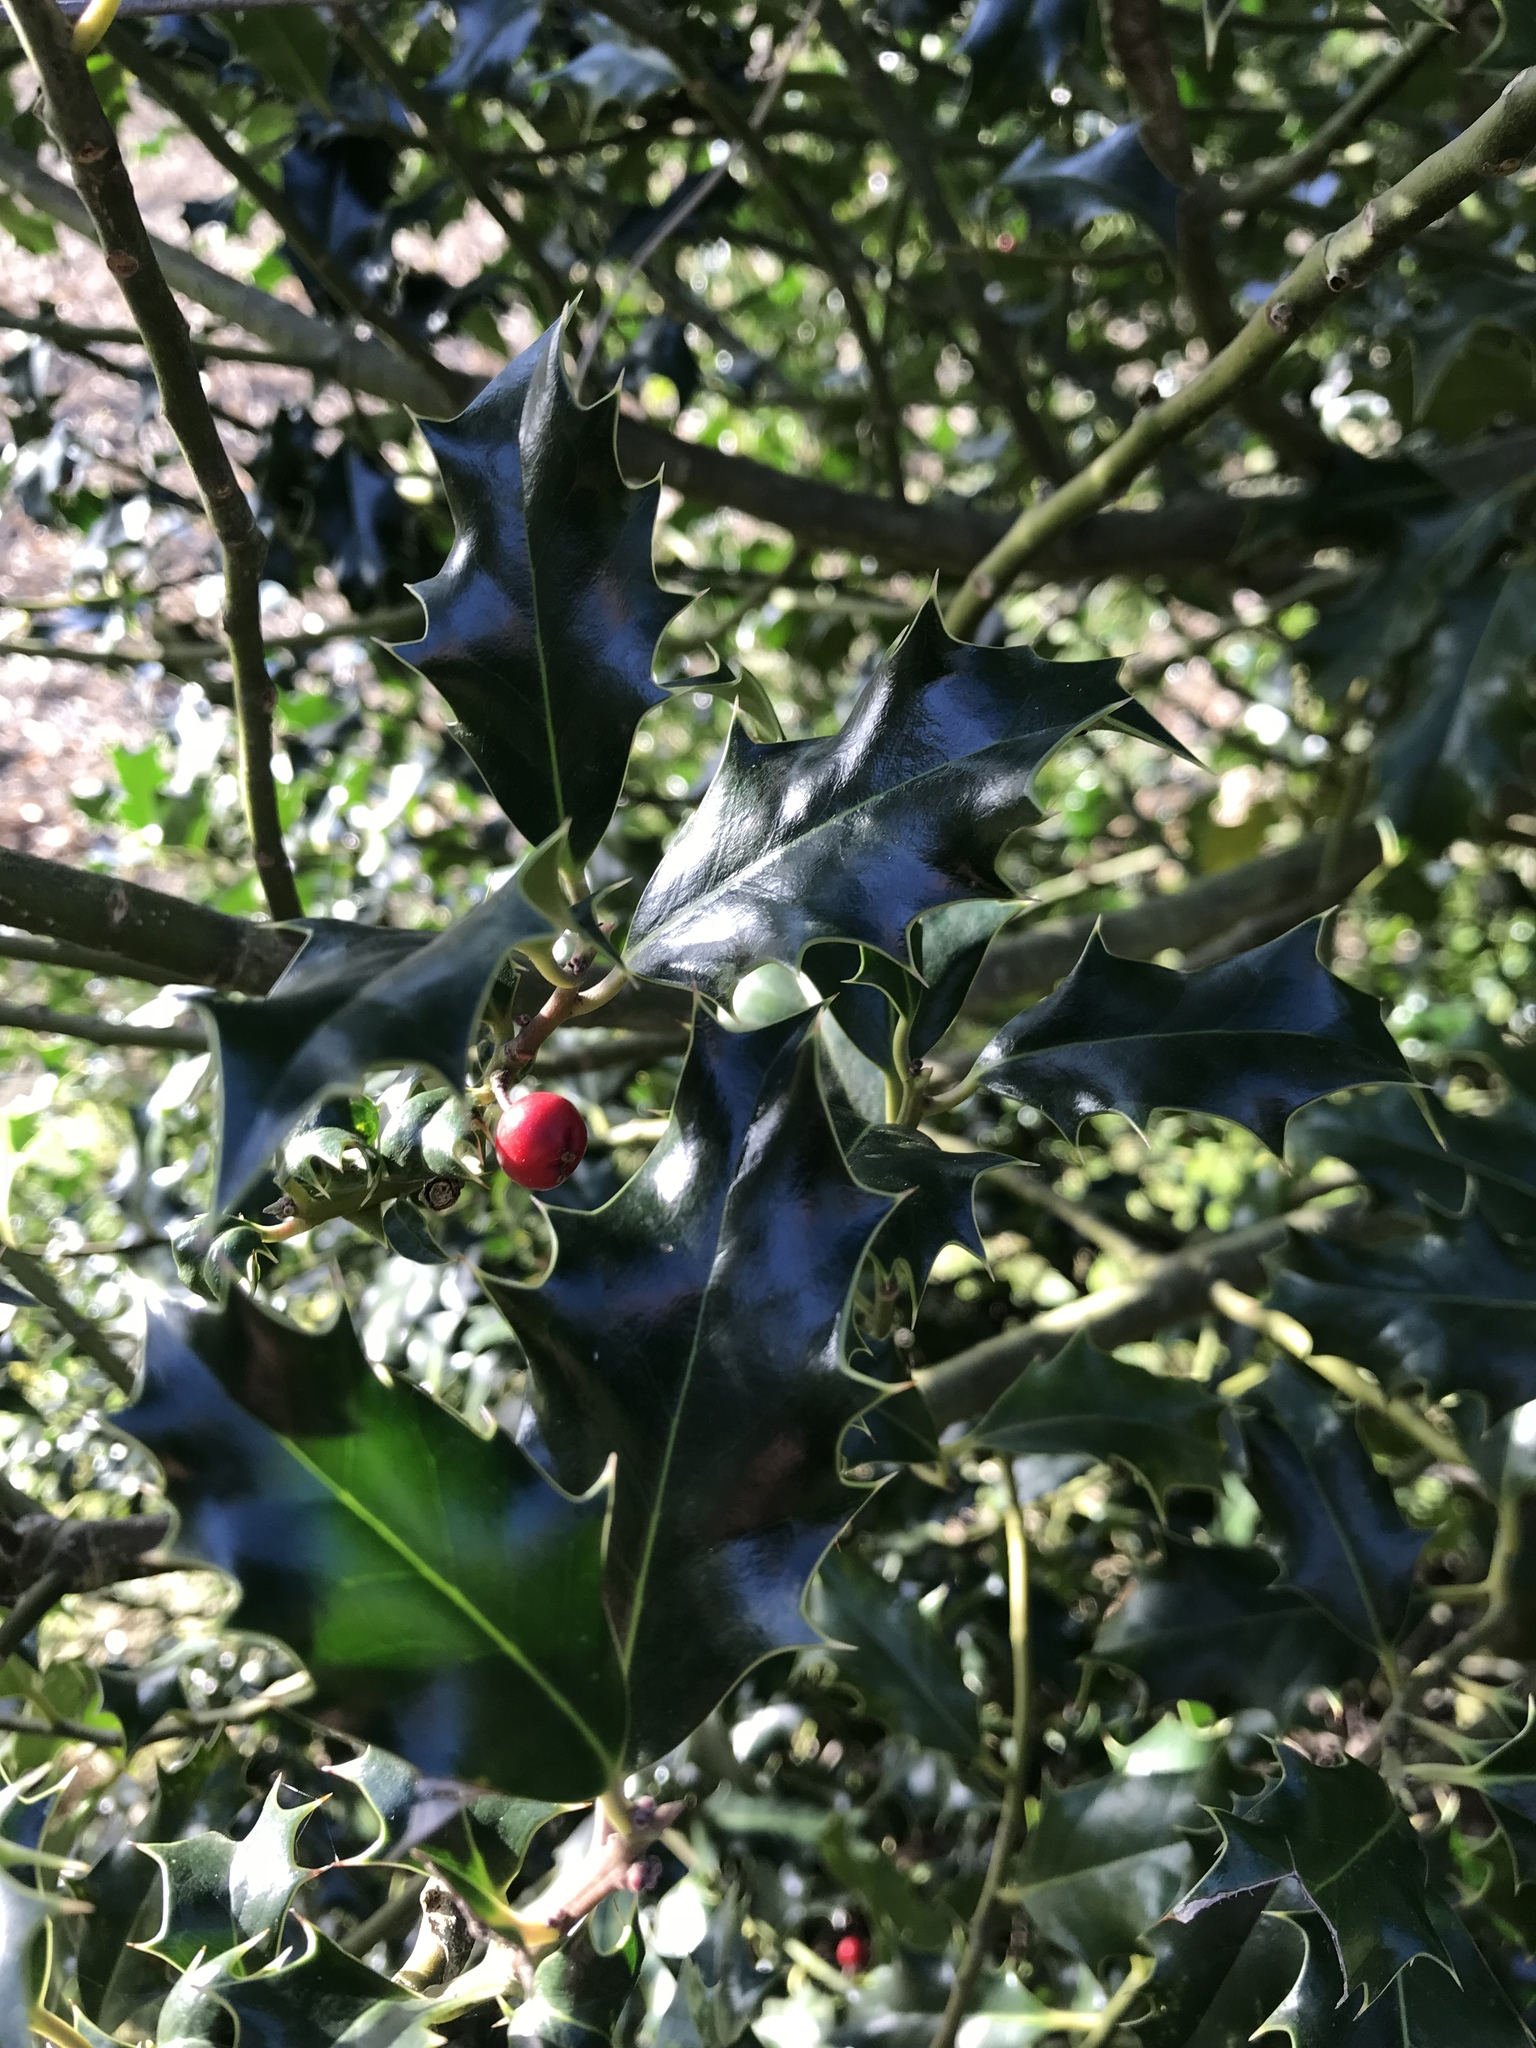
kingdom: Plantae
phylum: Tracheophyta
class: Magnoliopsida
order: Aquifoliales
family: Aquifoliaceae
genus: Ilex
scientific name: Ilex aquifolium
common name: English holly
